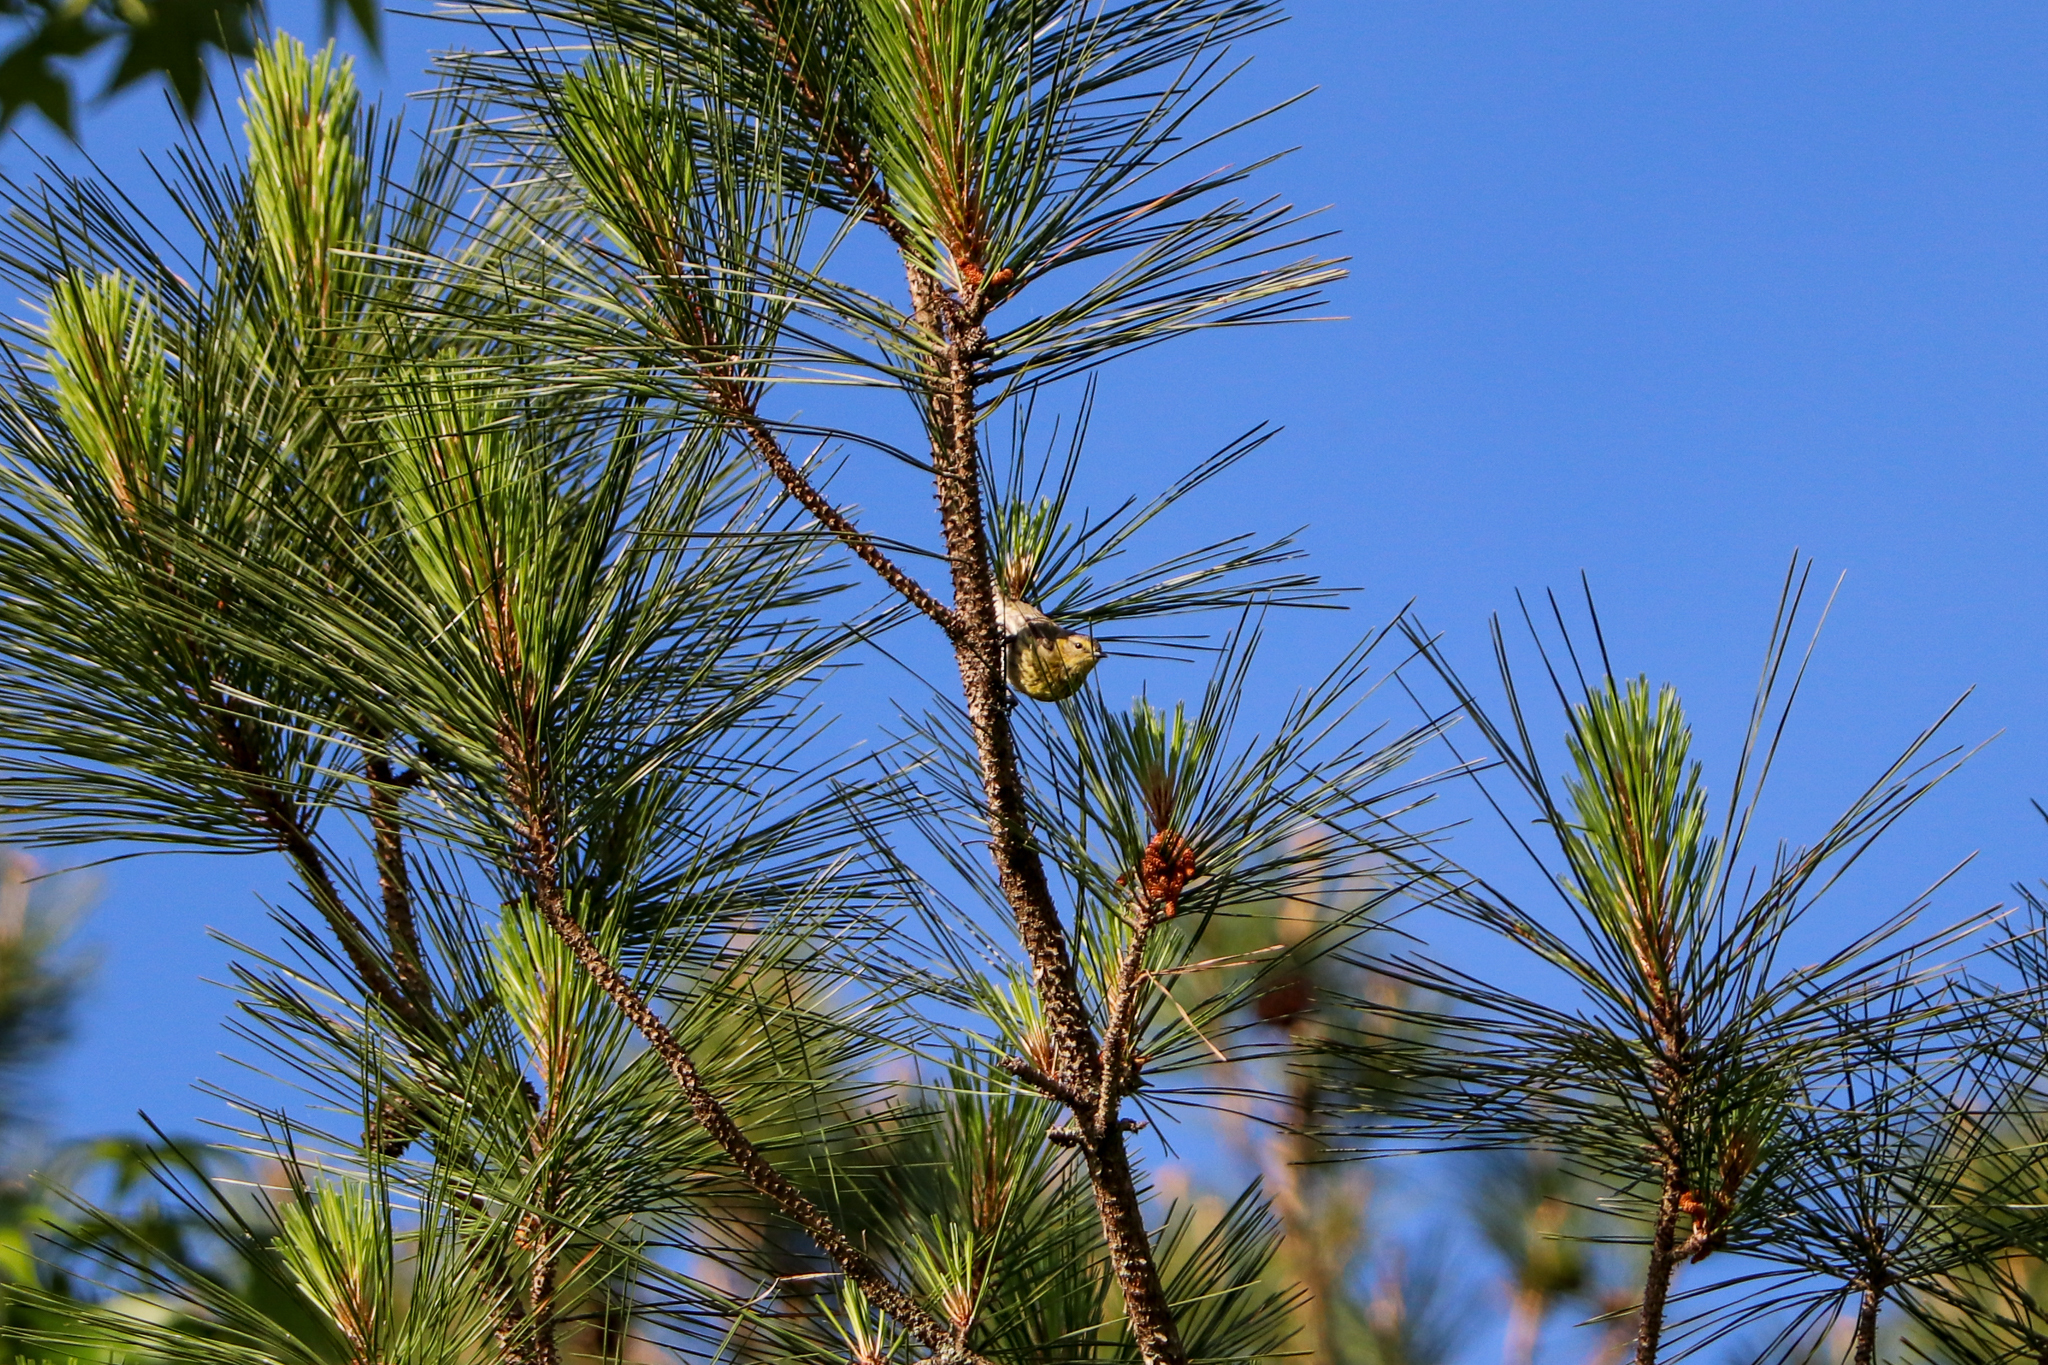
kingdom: Animalia
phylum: Chordata
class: Aves
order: Passeriformes
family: Parulidae
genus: Setophaga
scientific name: Setophaga tigrina
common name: Cape may warbler
